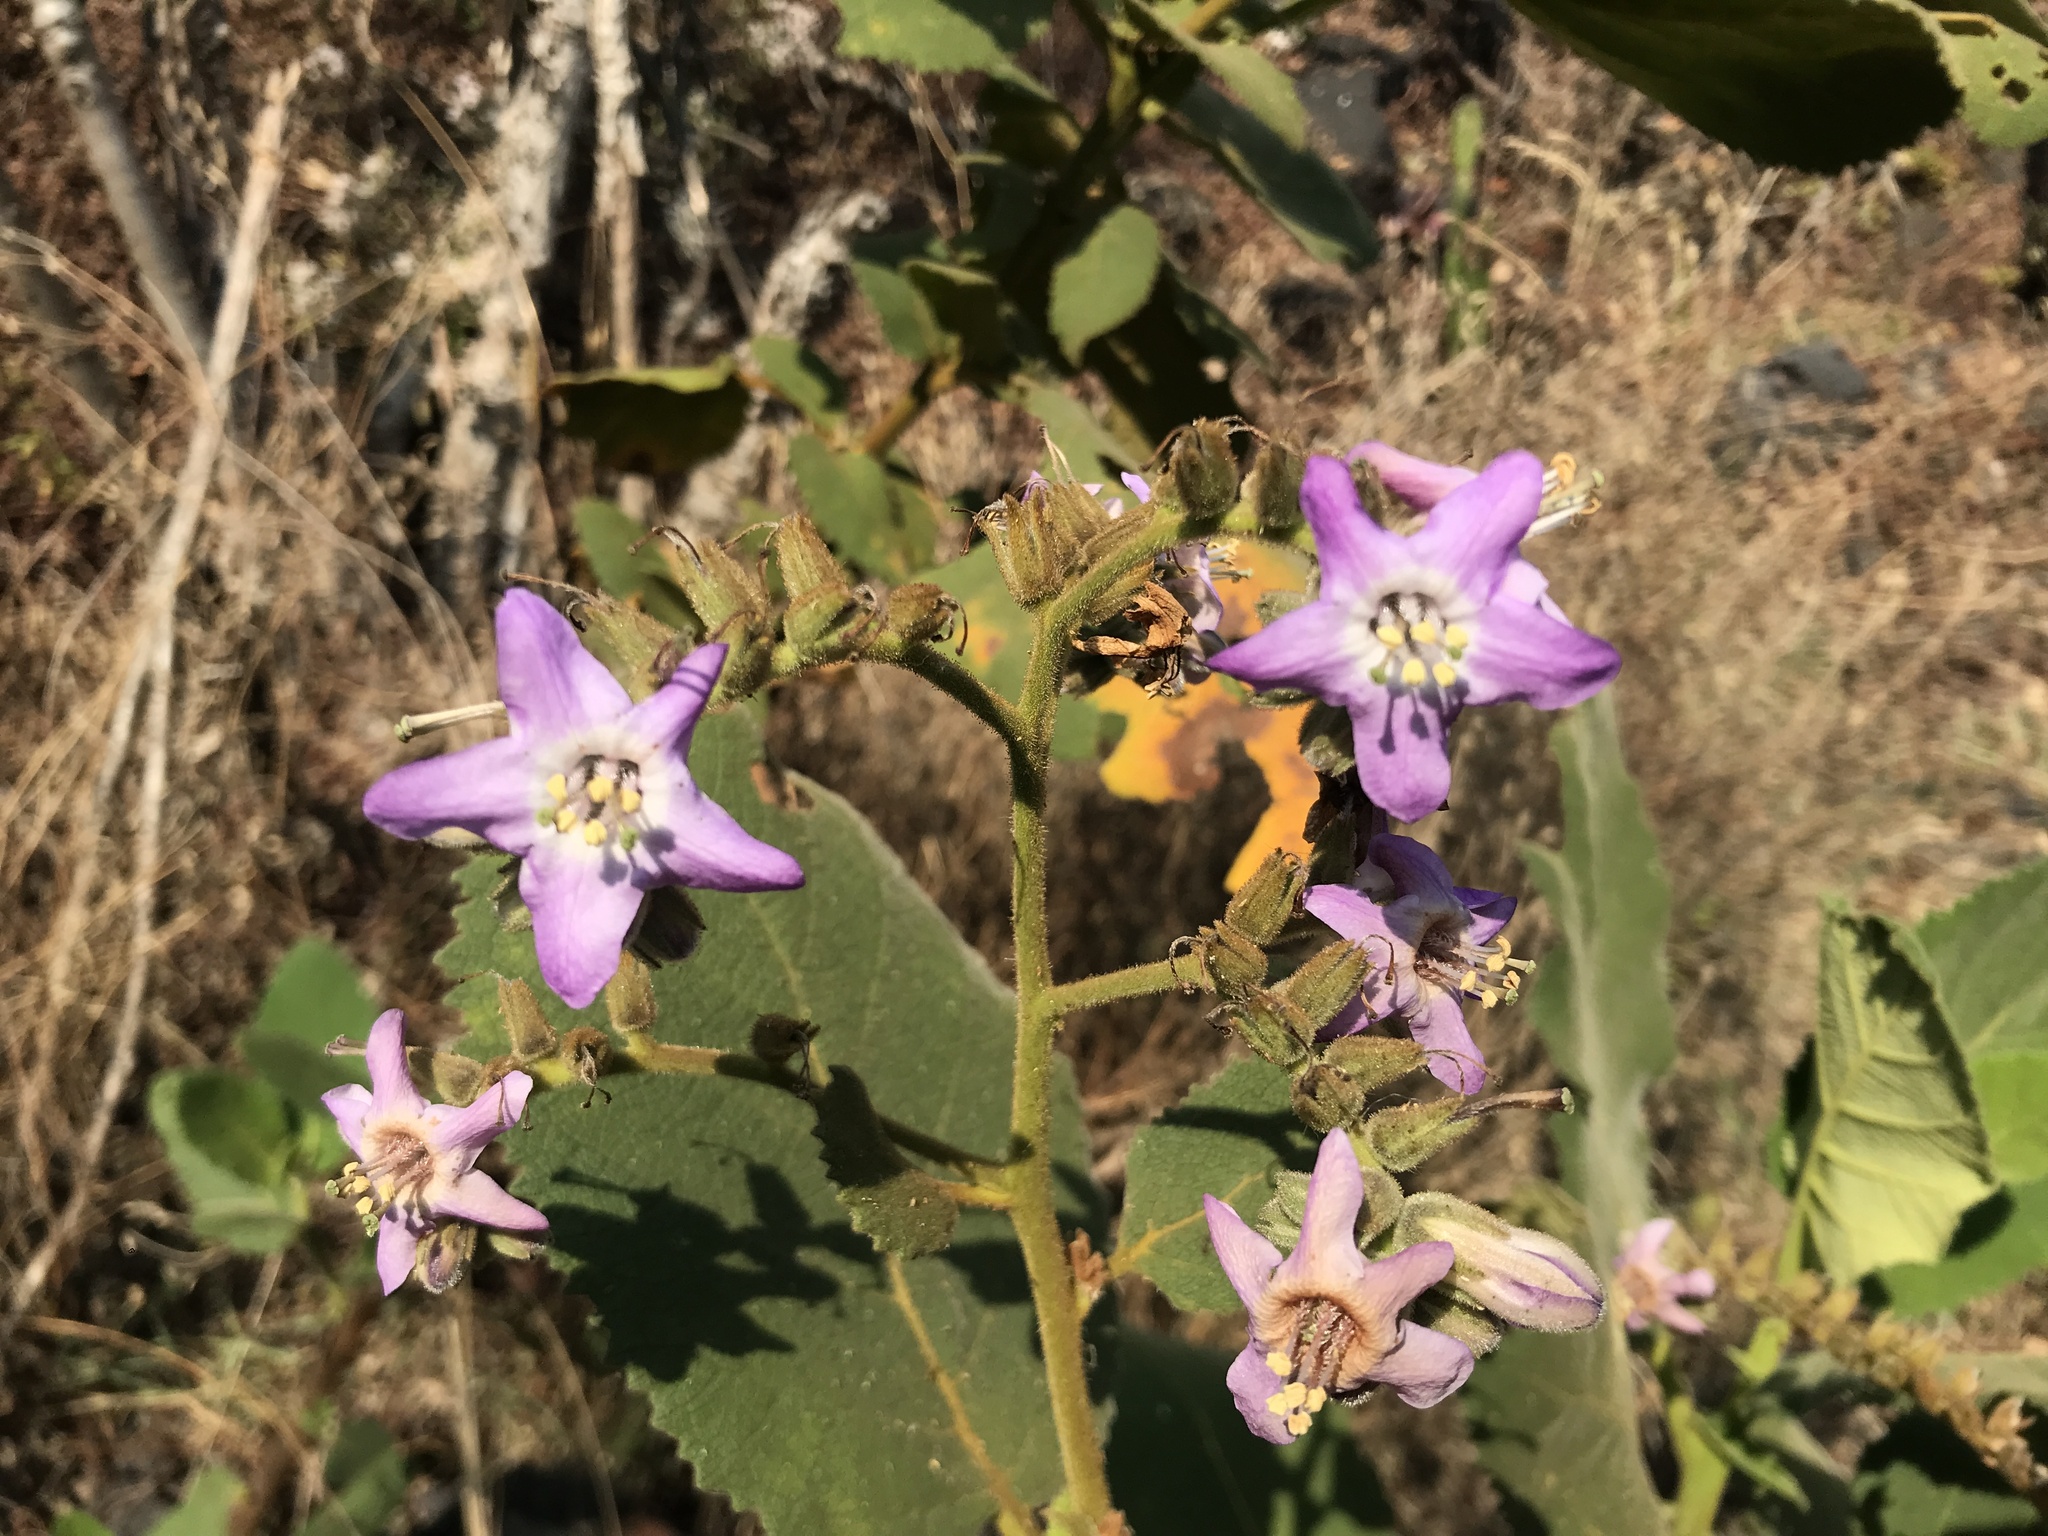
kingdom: Plantae
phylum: Tracheophyta
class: Magnoliopsida
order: Boraginales
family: Namaceae
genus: Wigandia
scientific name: Wigandia urens
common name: Caracus wigandia
